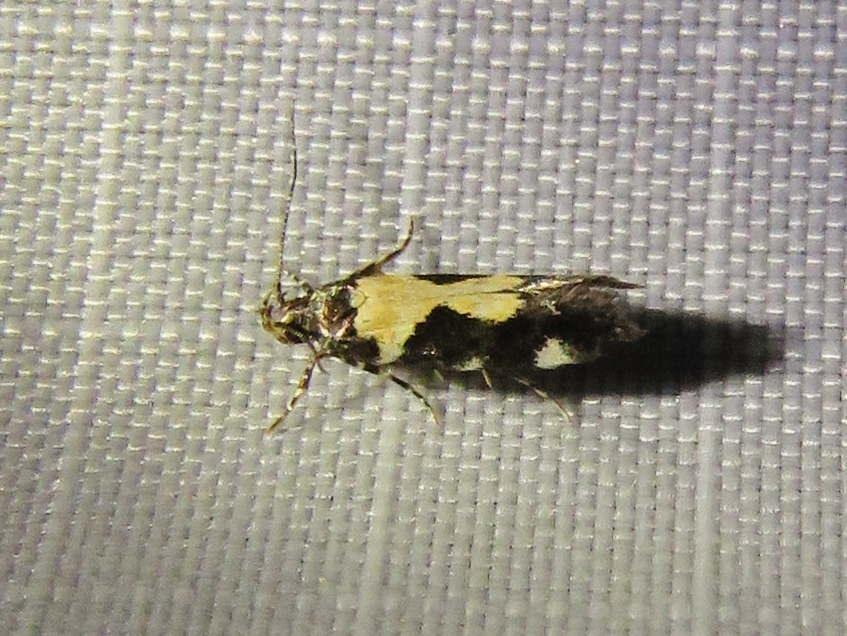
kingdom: Animalia
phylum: Arthropoda
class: Insecta
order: Lepidoptera
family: Gelechiidae
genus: Stegasta
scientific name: Stegasta bosqueella
